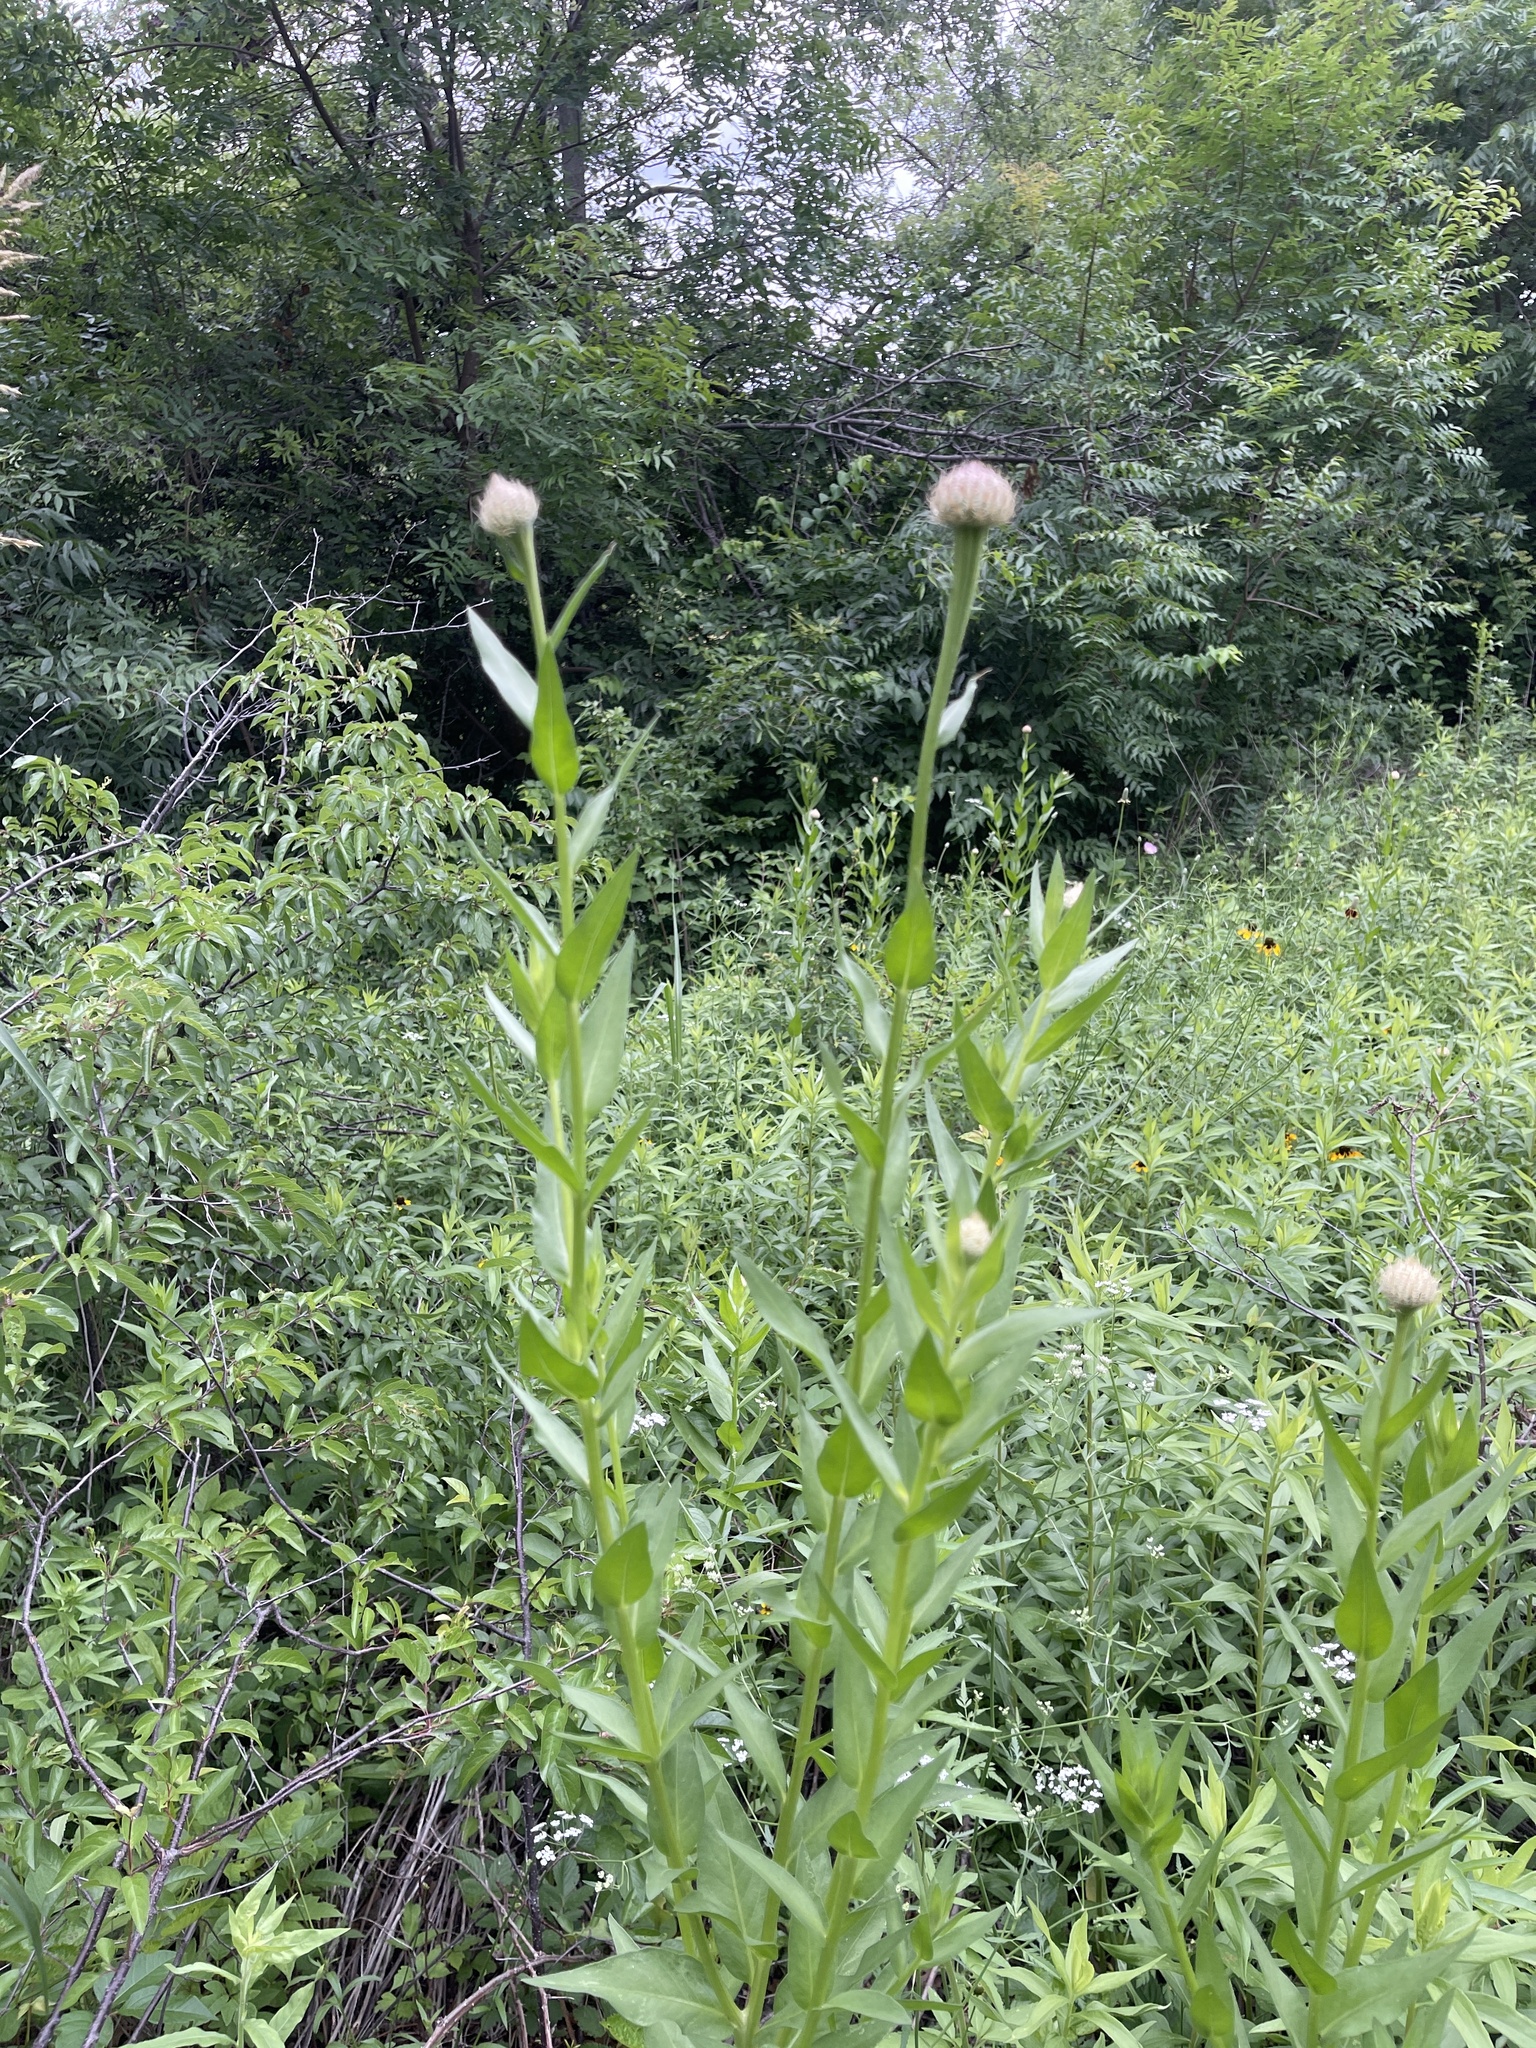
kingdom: Plantae
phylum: Tracheophyta
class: Magnoliopsida
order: Asterales
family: Asteraceae
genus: Plectocephalus
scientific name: Plectocephalus americanus
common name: American basket-flower
